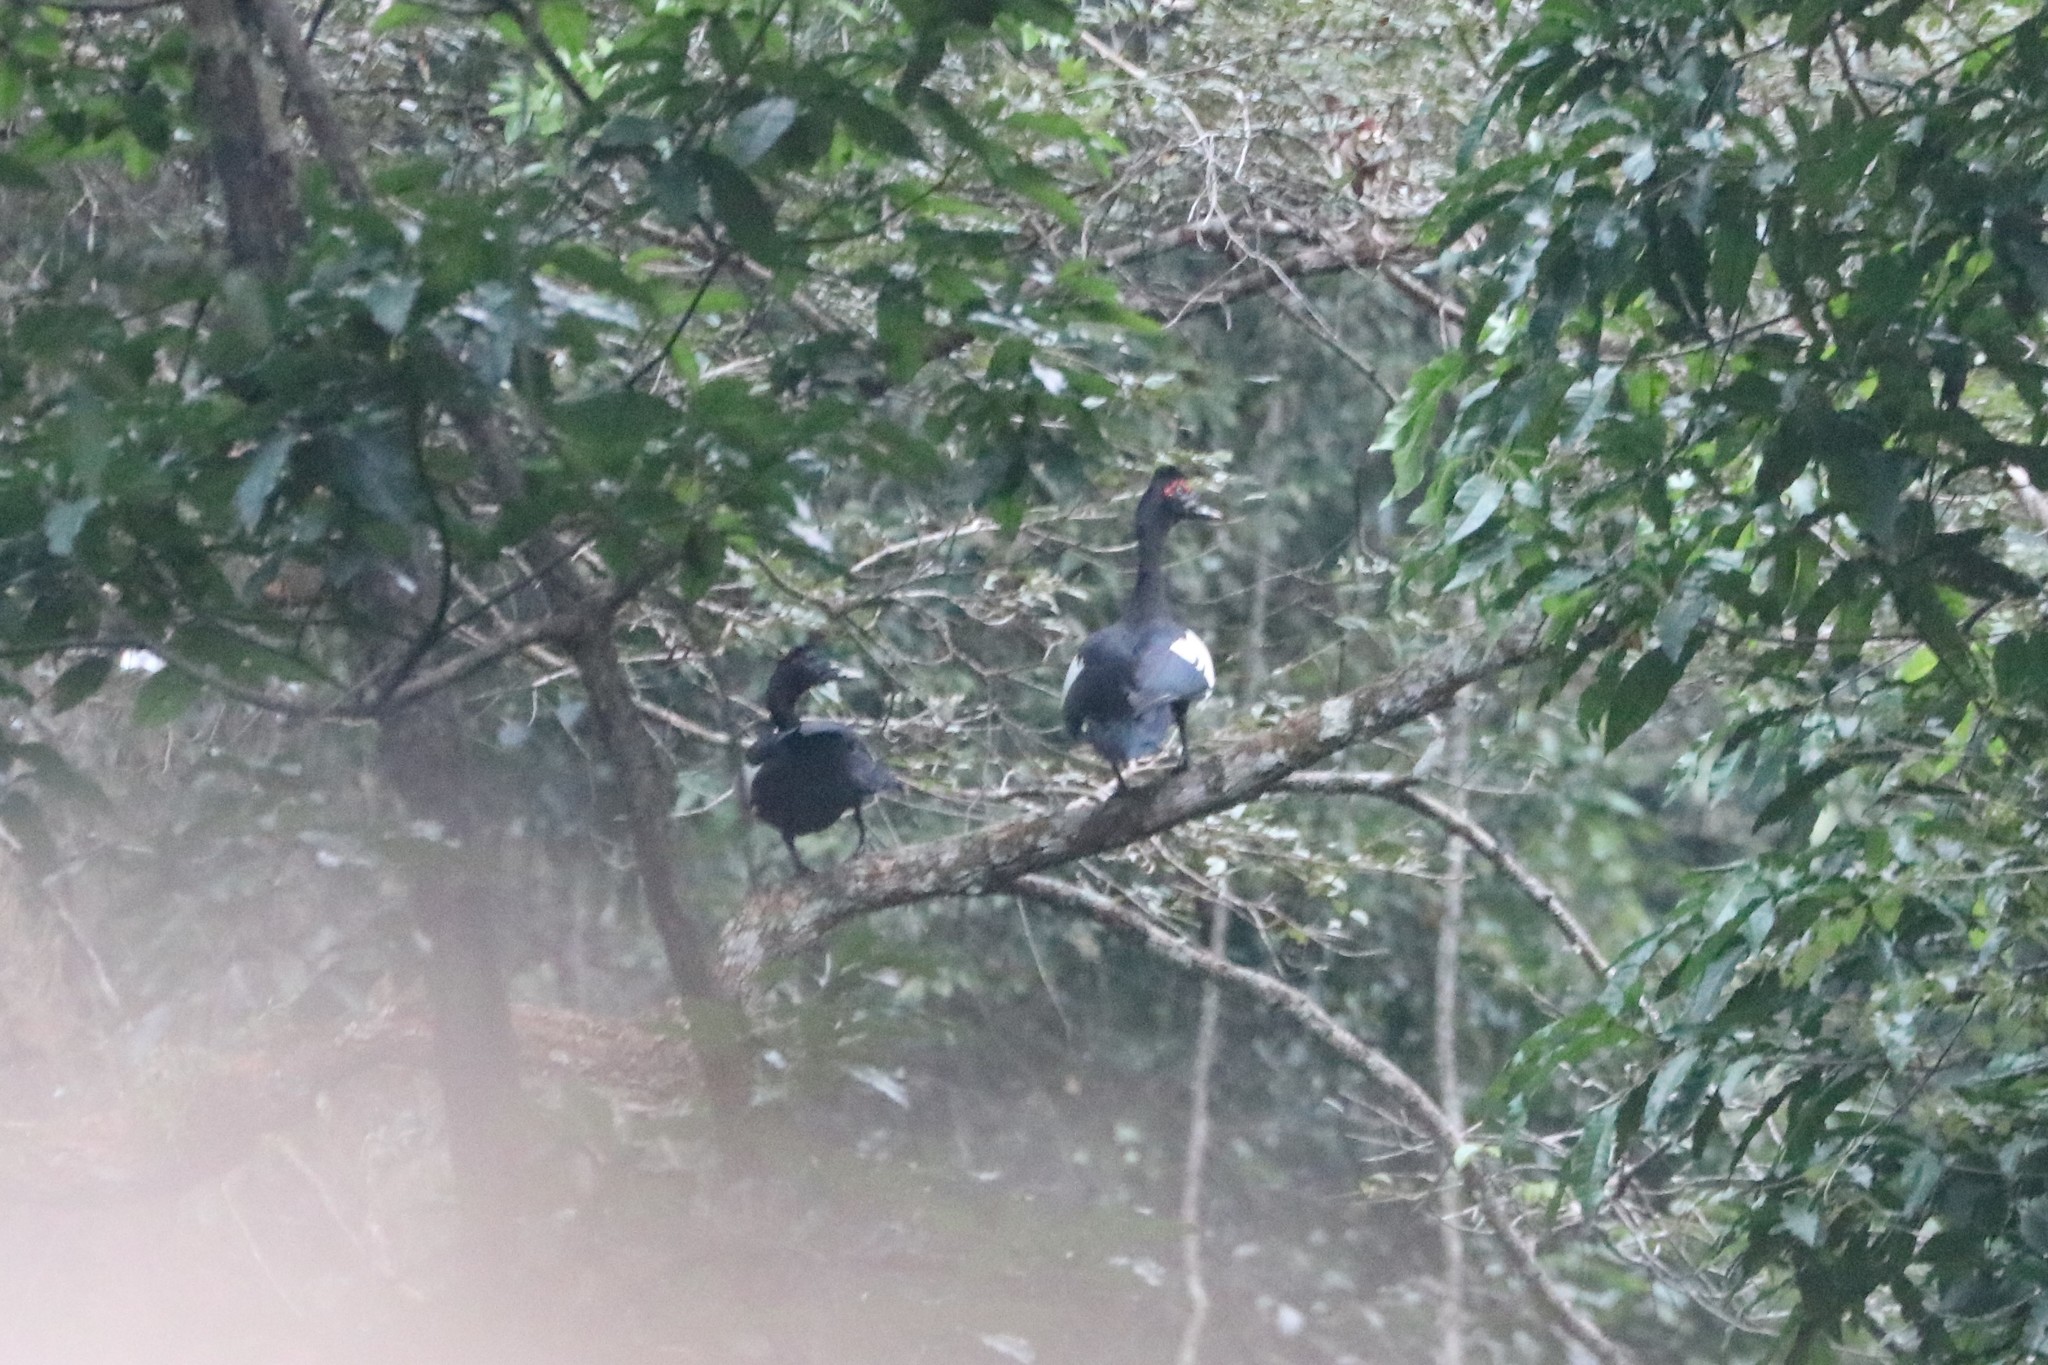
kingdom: Animalia
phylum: Chordata
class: Aves
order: Anseriformes
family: Anatidae
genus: Cairina
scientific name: Cairina moschata
